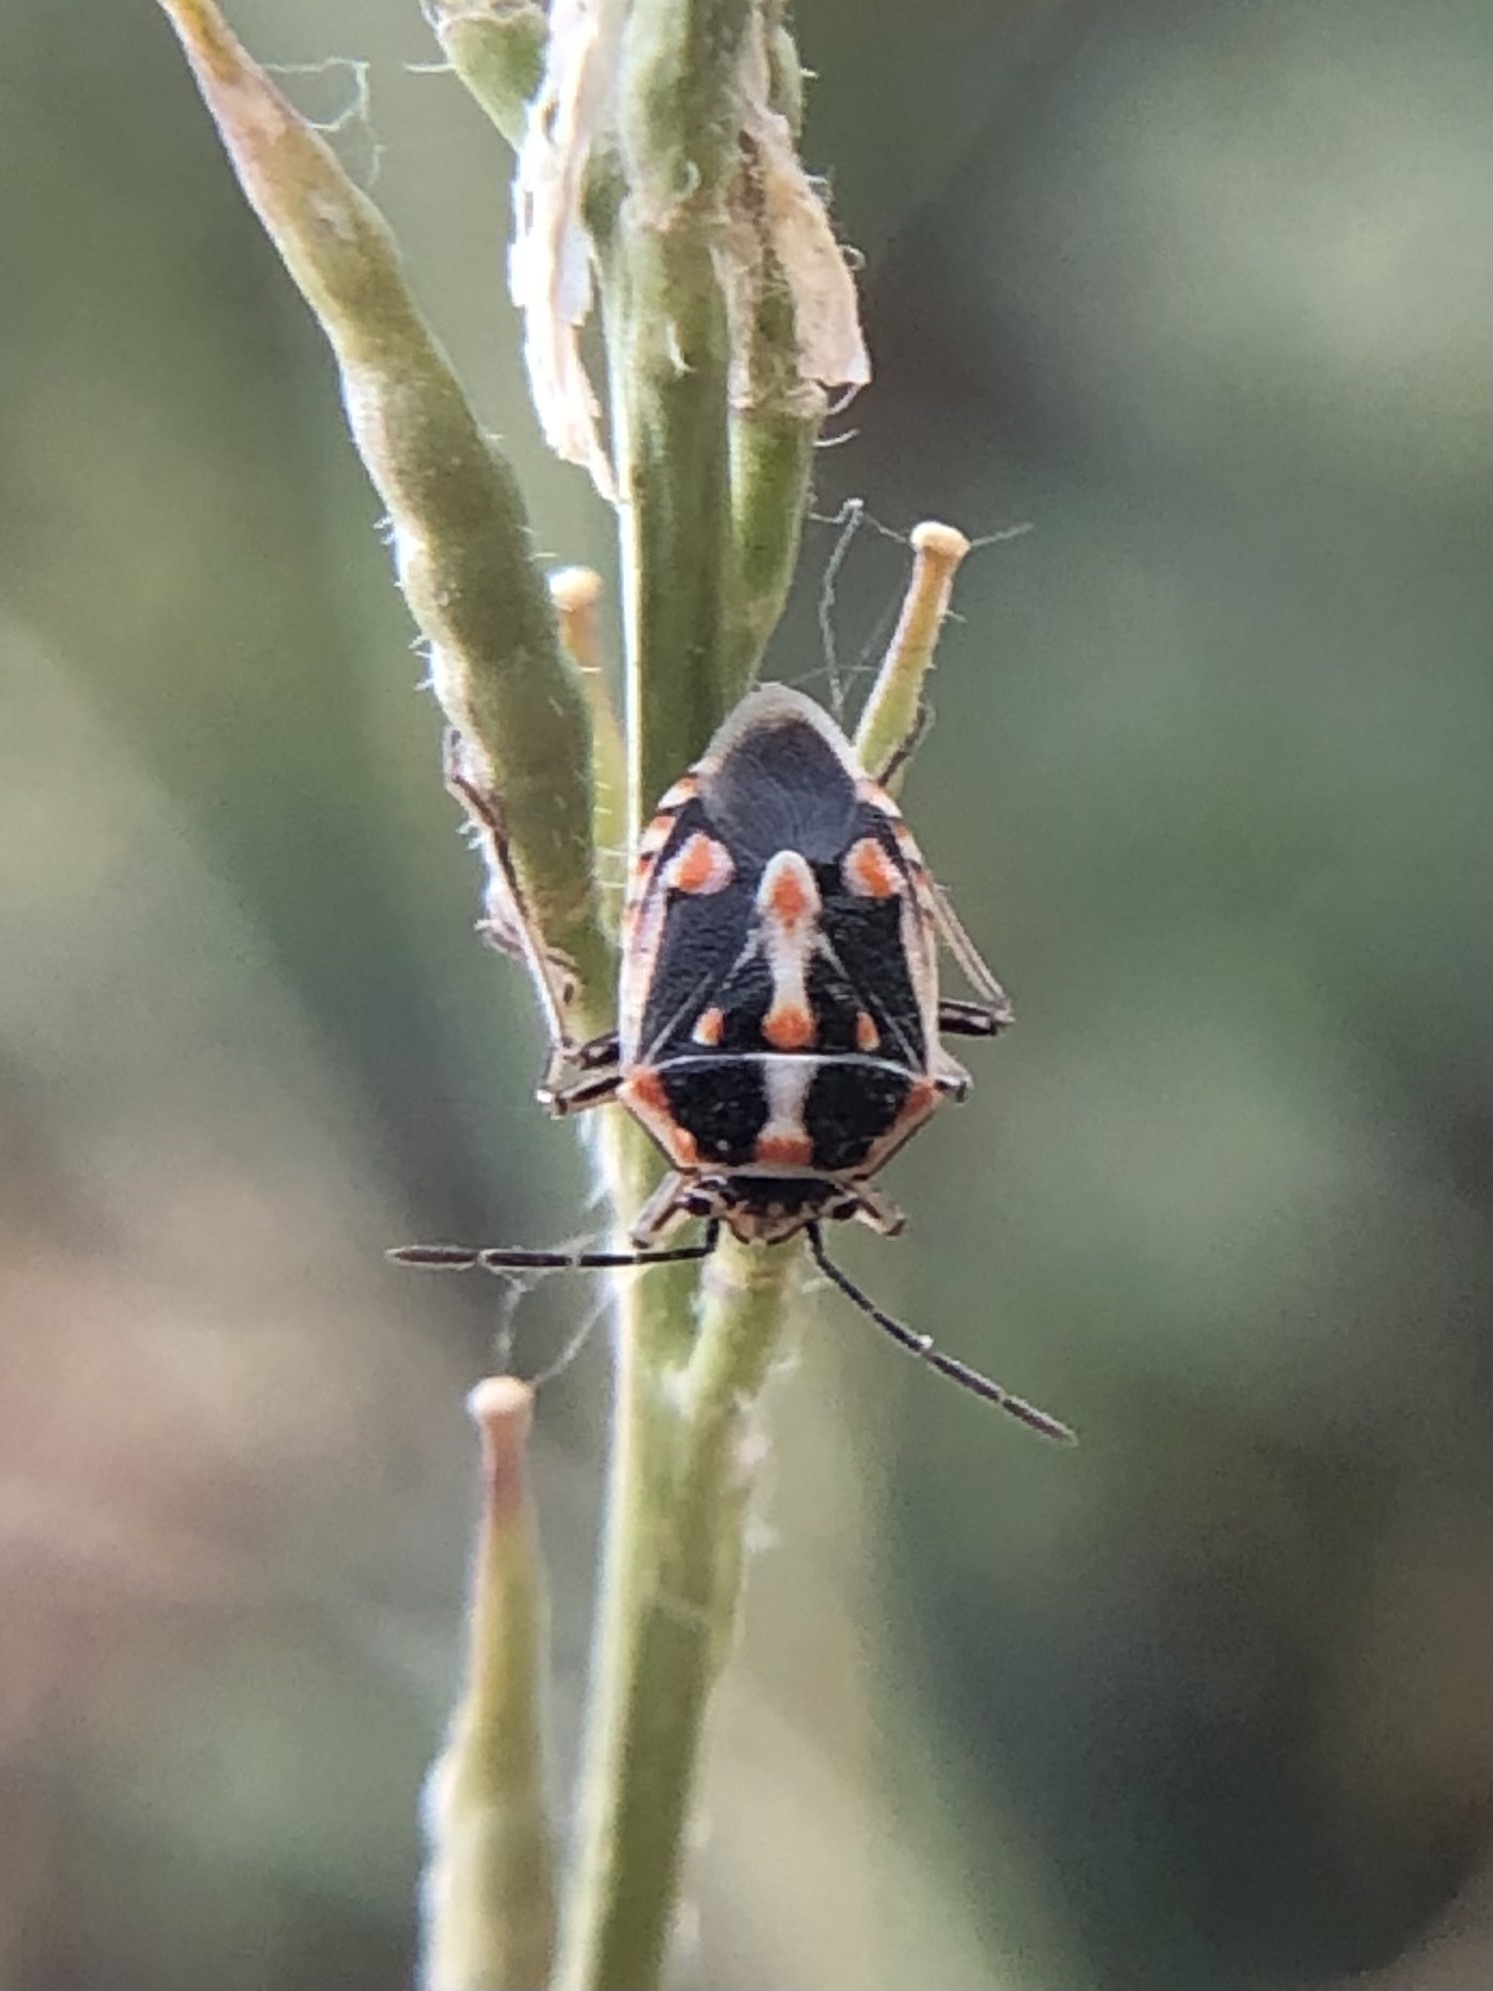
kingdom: Animalia
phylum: Arthropoda
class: Insecta
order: Hemiptera
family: Pentatomidae
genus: Bagrada
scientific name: Bagrada hilaris
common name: Bagrada bug
